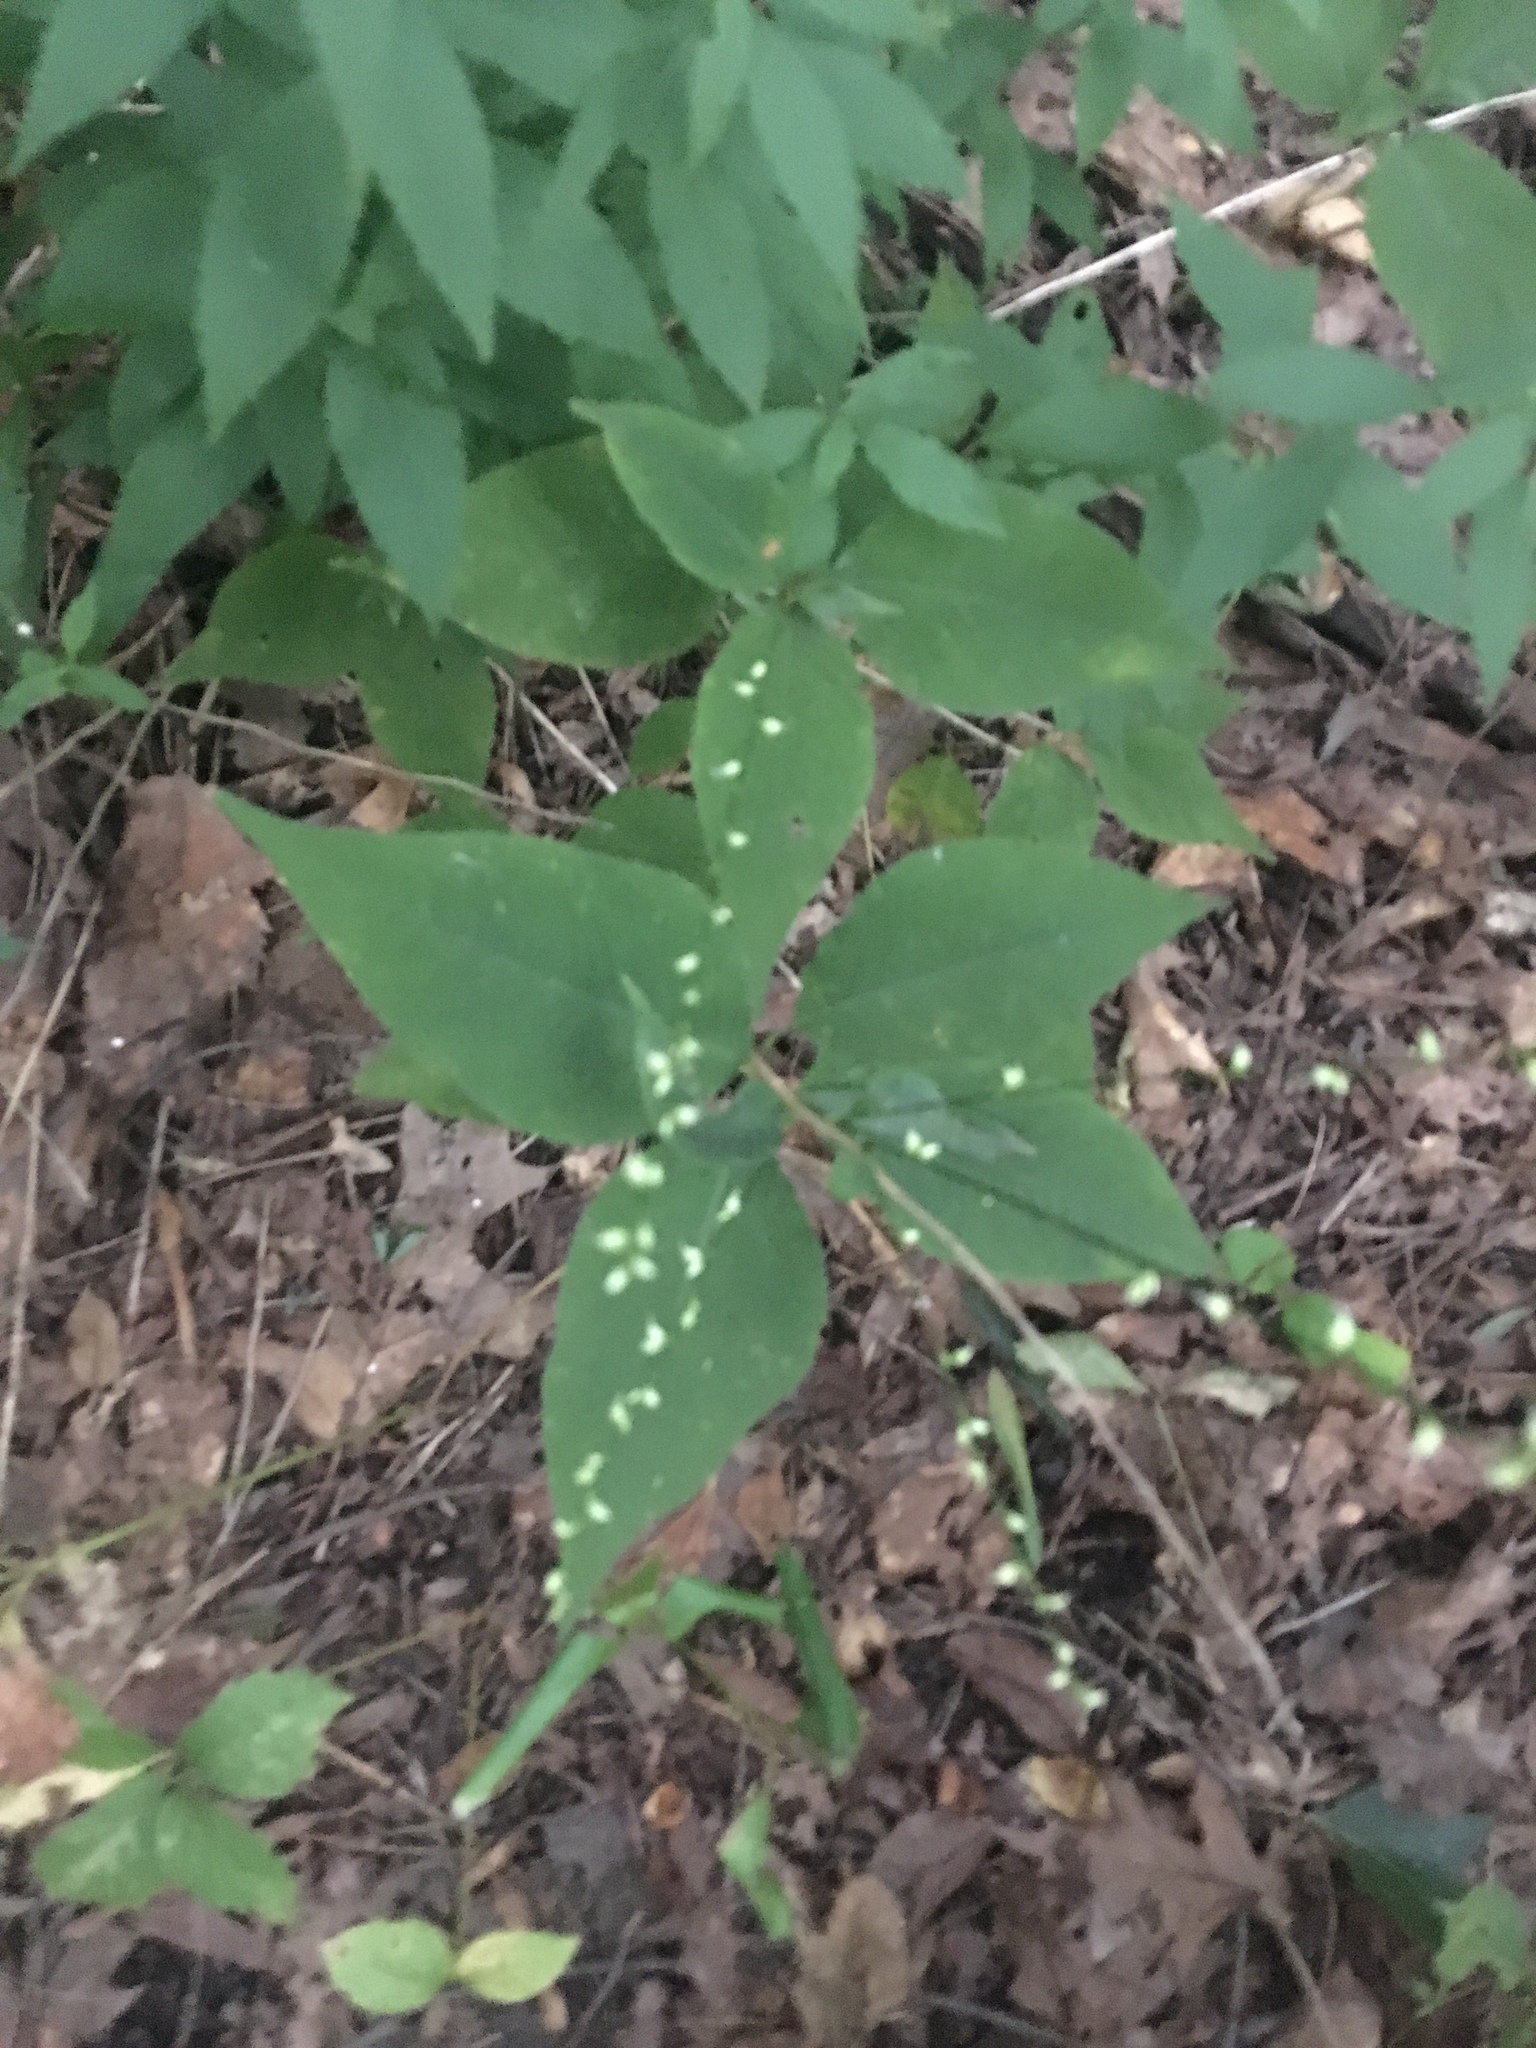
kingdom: Plantae
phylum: Tracheophyta
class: Magnoliopsida
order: Caryophyllales
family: Polygonaceae
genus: Persicaria
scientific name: Persicaria virginiana
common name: Jumpseed
